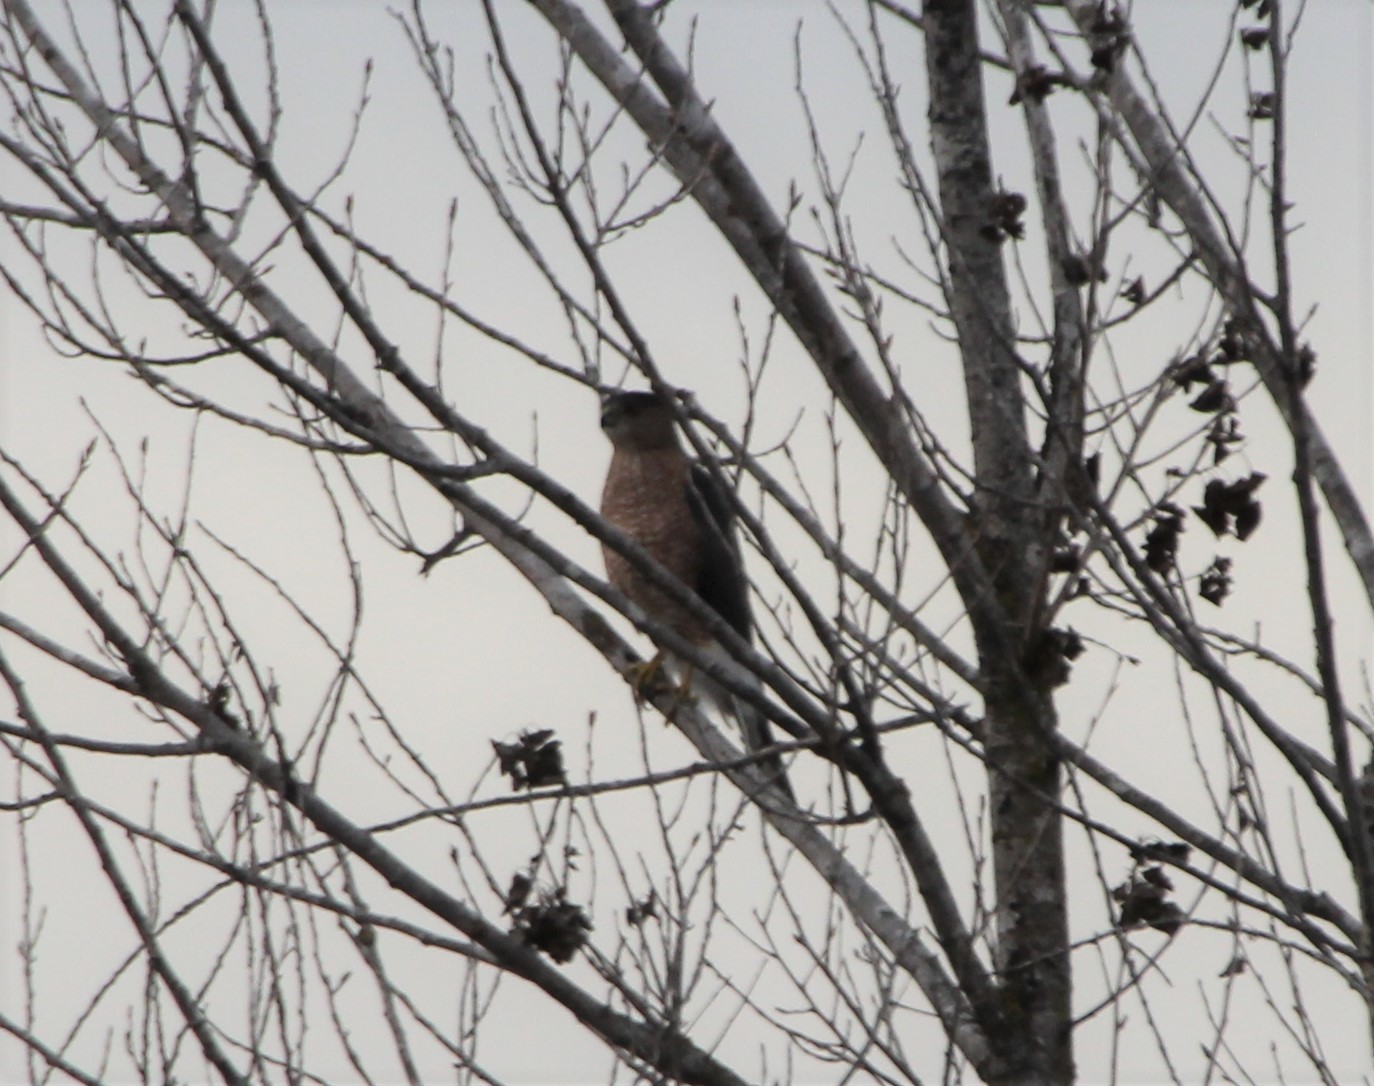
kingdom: Animalia
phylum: Chordata
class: Aves
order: Accipitriformes
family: Accipitridae
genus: Accipiter
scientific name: Accipiter cooperii
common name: Cooper's hawk
